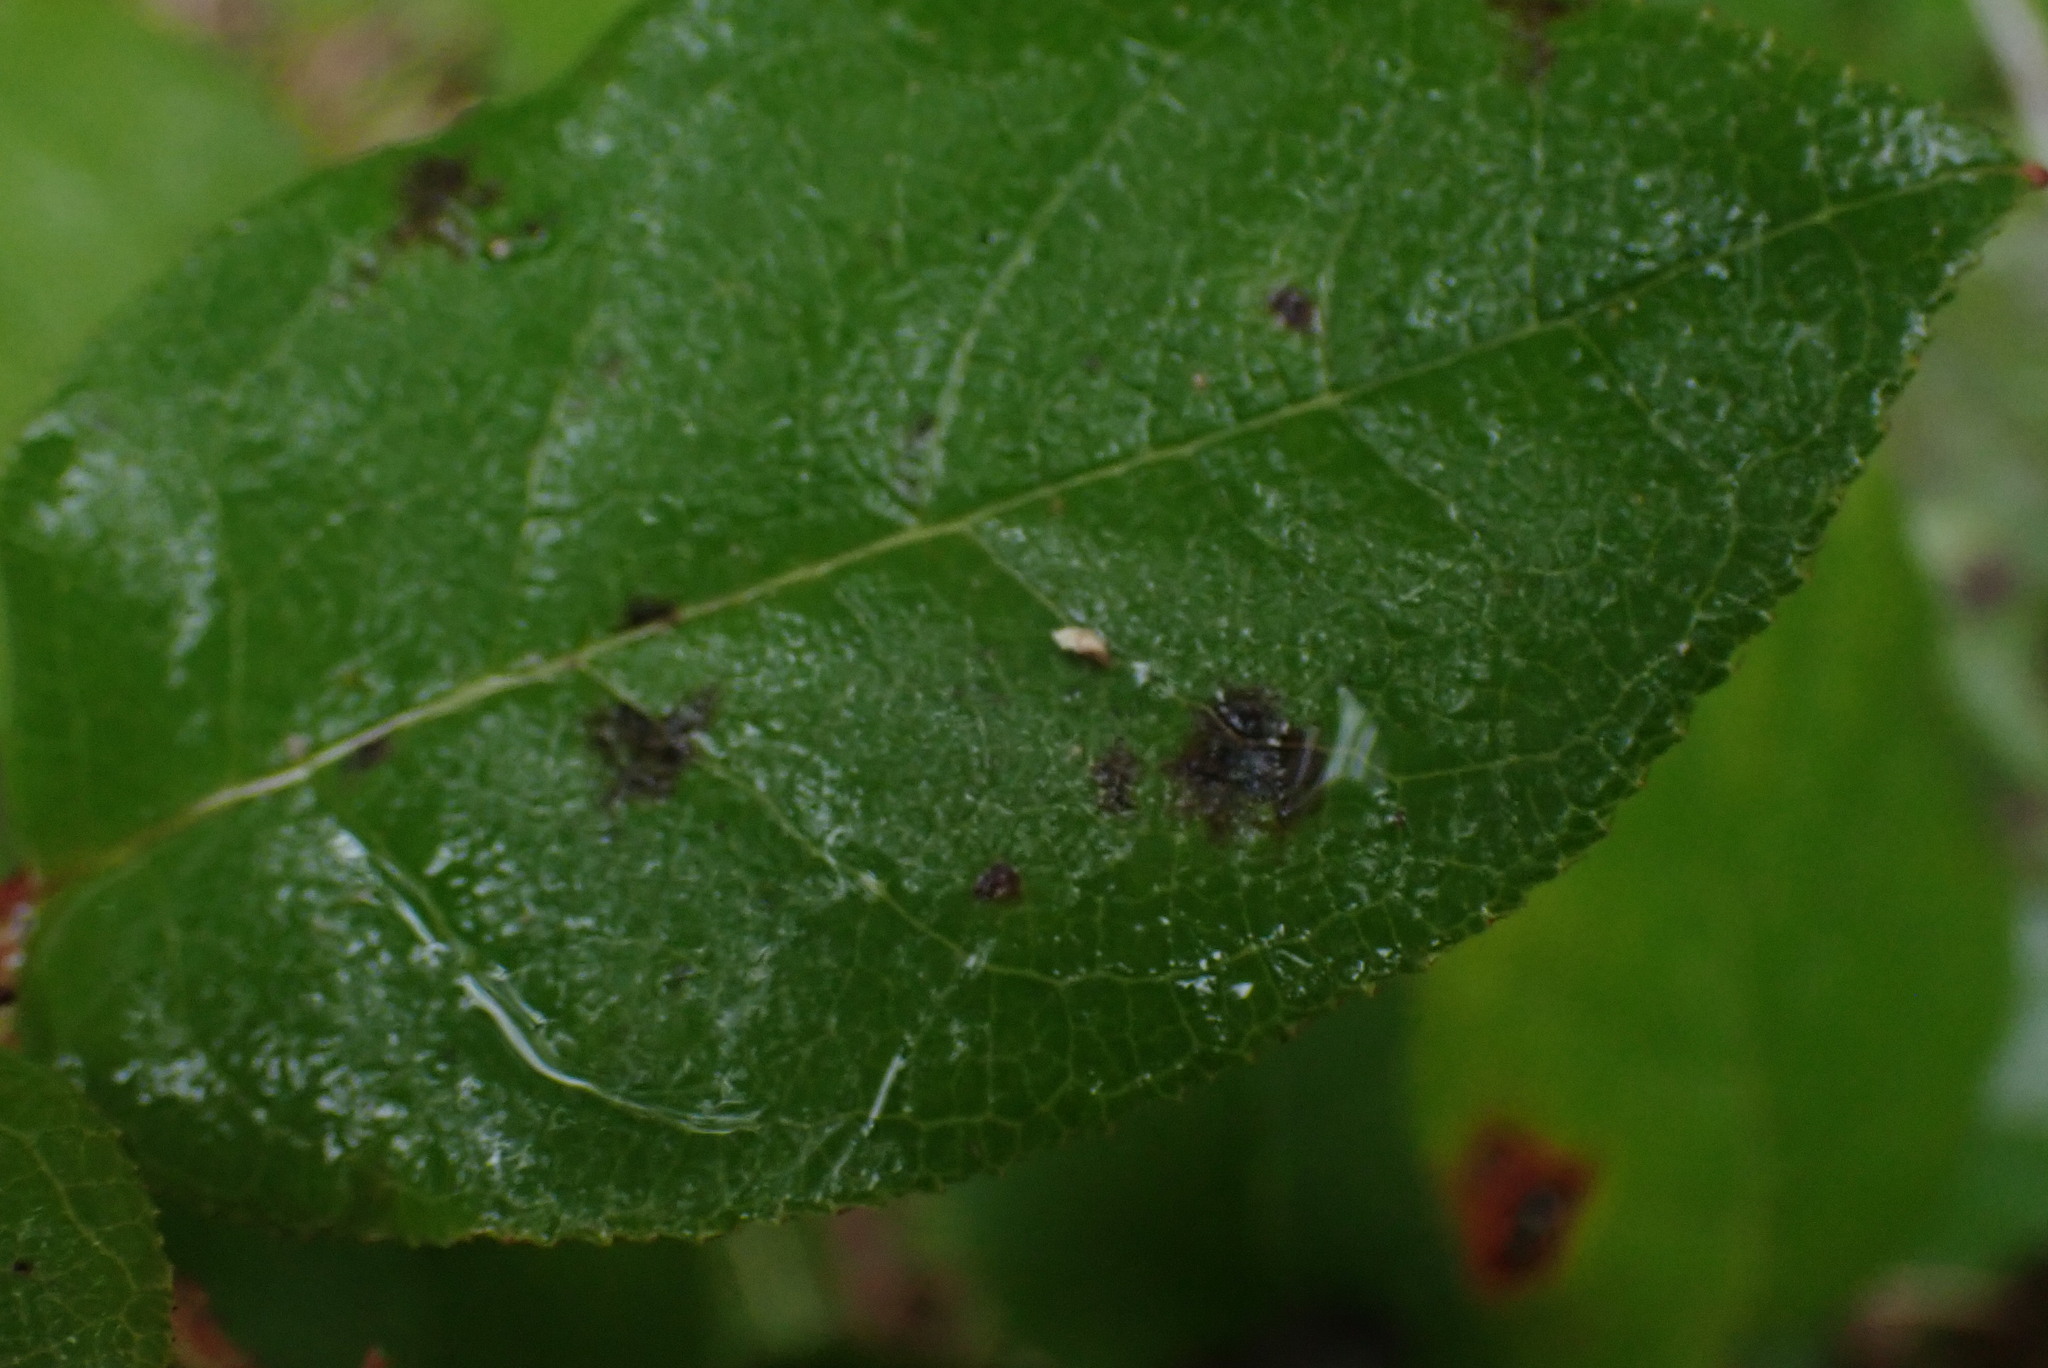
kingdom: Plantae
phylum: Tracheophyta
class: Magnoliopsida
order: Ericales
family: Ericaceae
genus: Gaultheria
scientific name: Gaultheria shallon
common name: Shallon
